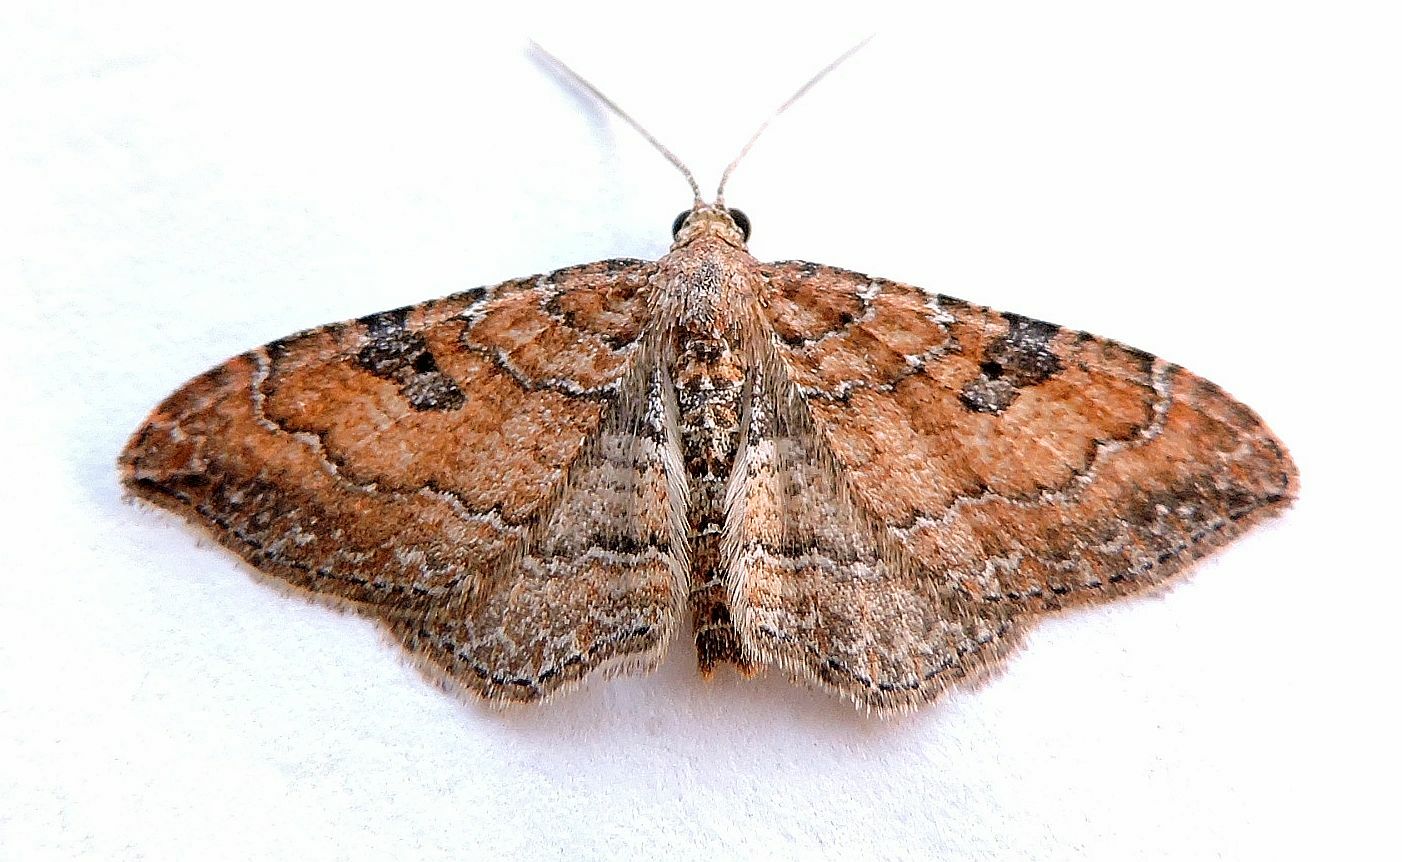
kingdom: Animalia
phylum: Arthropoda
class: Insecta
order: Lepidoptera
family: Geometridae
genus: Orthonama
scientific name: Orthonama obstipata
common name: The gem
